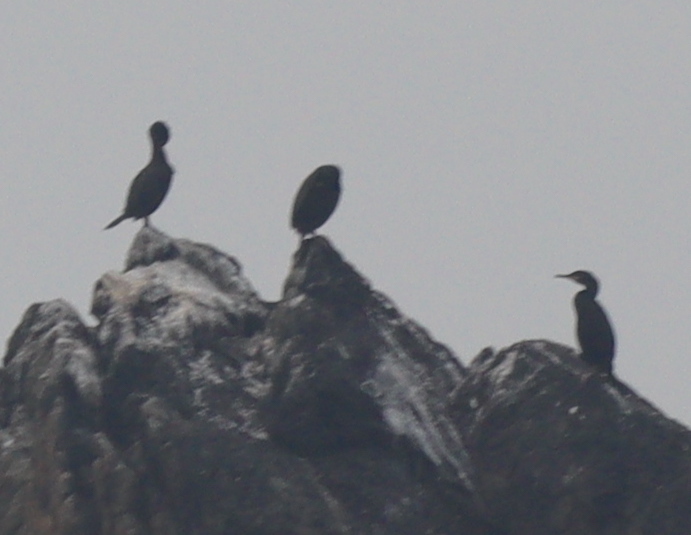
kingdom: Animalia
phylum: Chordata
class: Aves
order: Suliformes
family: Phalacrocoracidae
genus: Phalacrocorax
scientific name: Phalacrocorax aristotelis
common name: European shag
